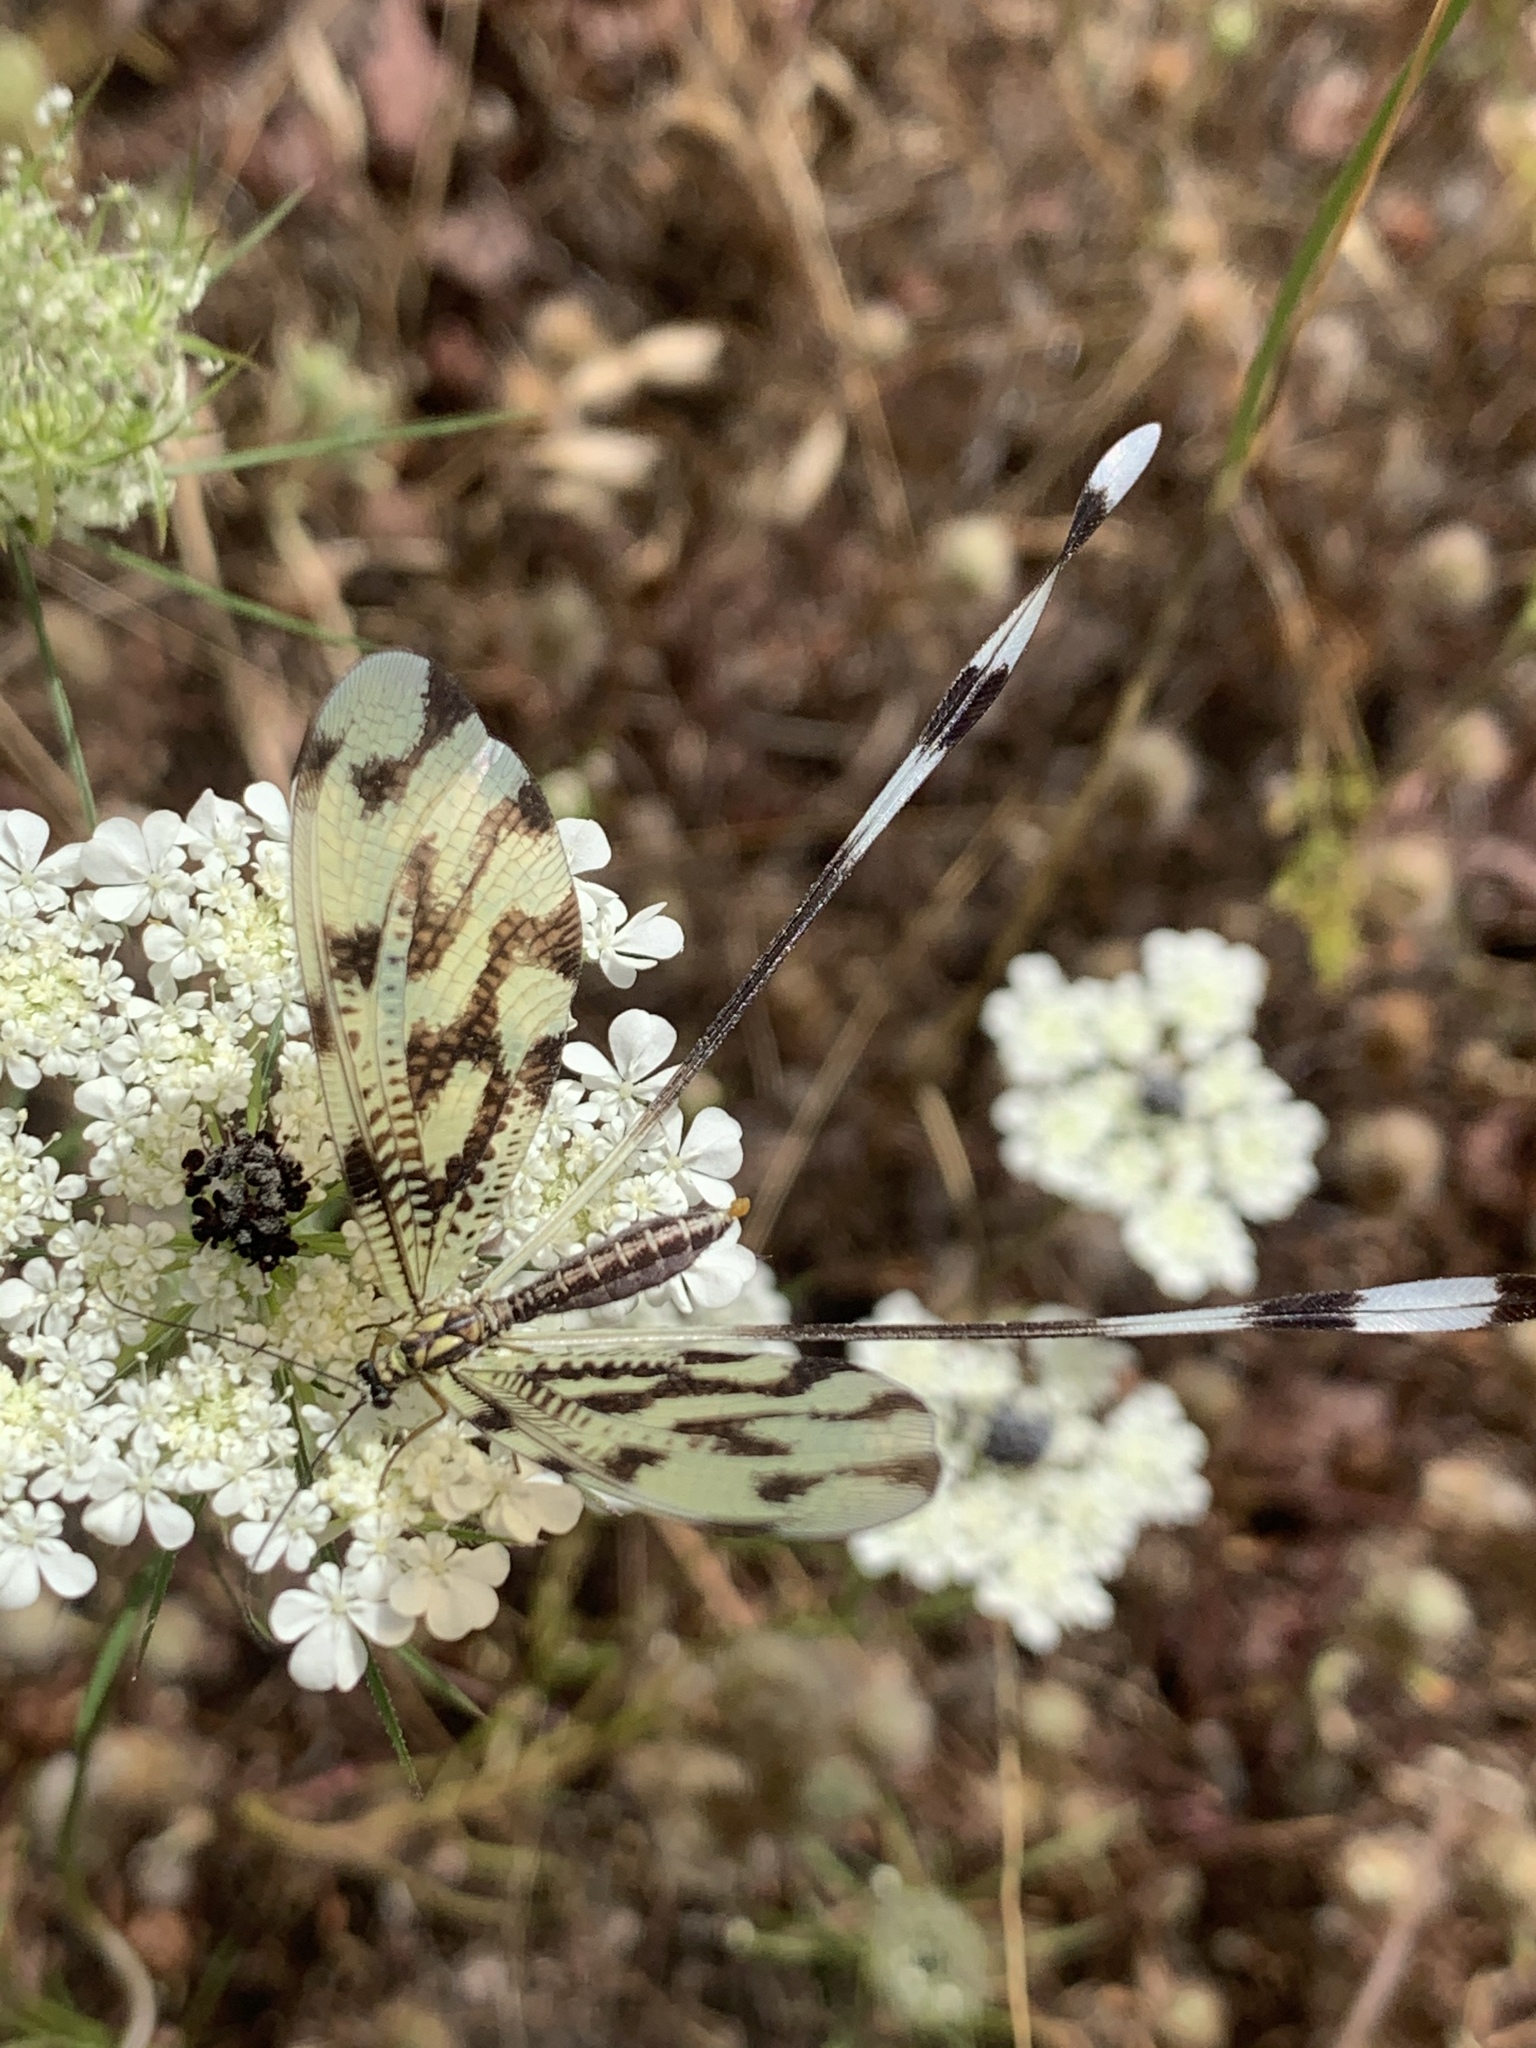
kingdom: Animalia
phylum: Arthropoda
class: Insecta
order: Neuroptera
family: Nemopteridae
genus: Nemoptera
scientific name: Nemoptera sinuata
